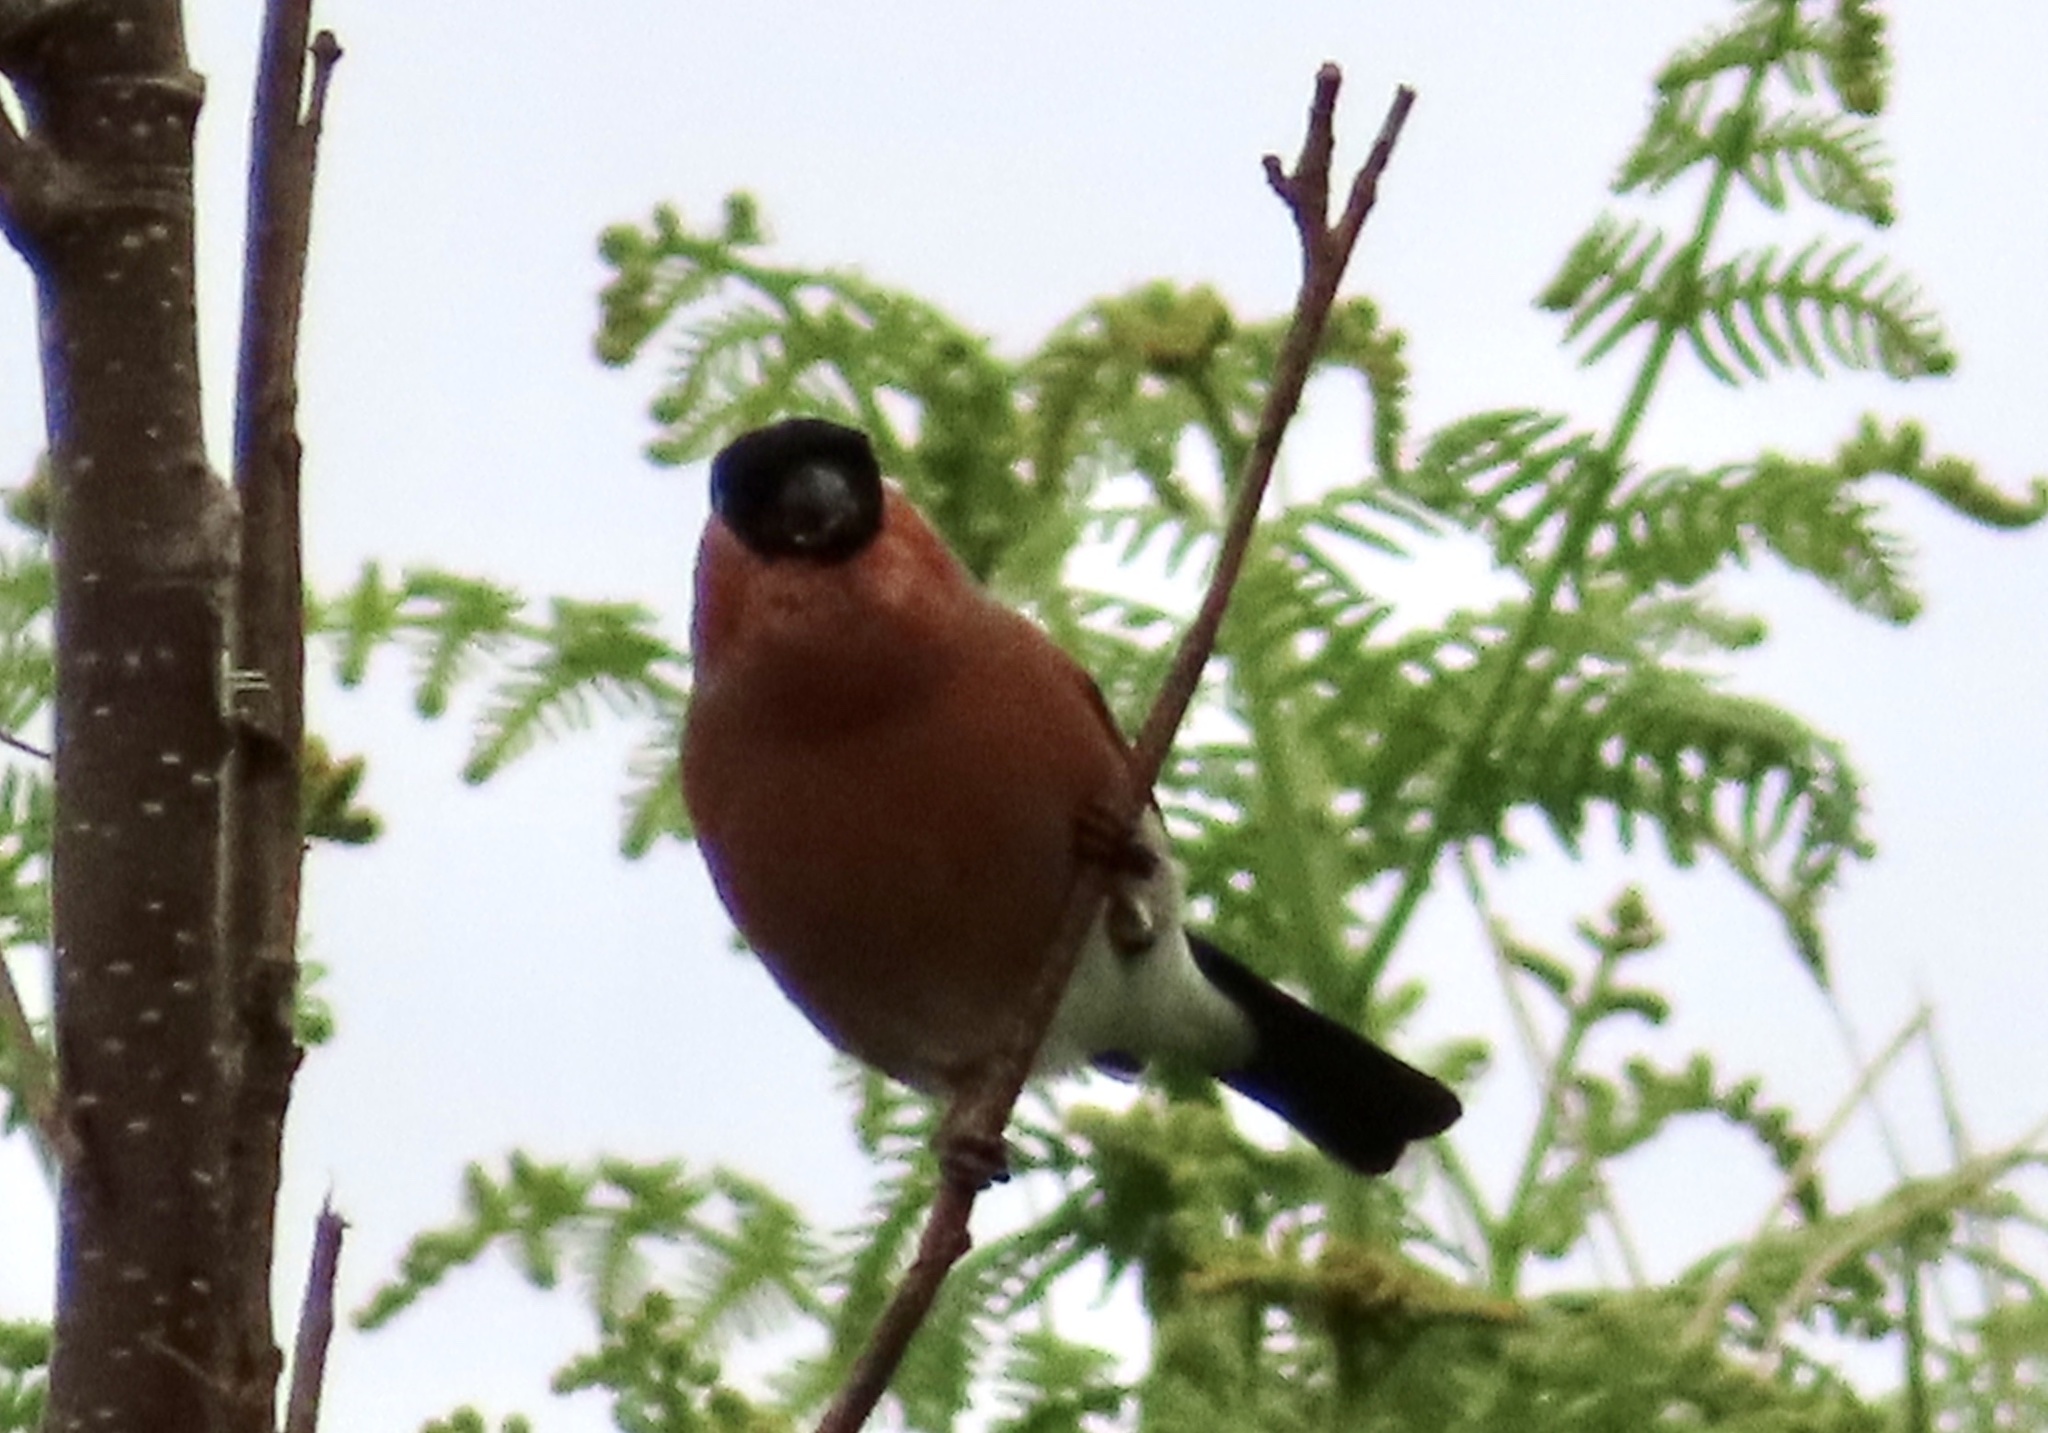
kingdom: Animalia
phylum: Chordata
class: Aves
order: Passeriformes
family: Fringillidae
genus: Pyrrhula
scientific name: Pyrrhula pyrrhula
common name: Eurasian bullfinch
